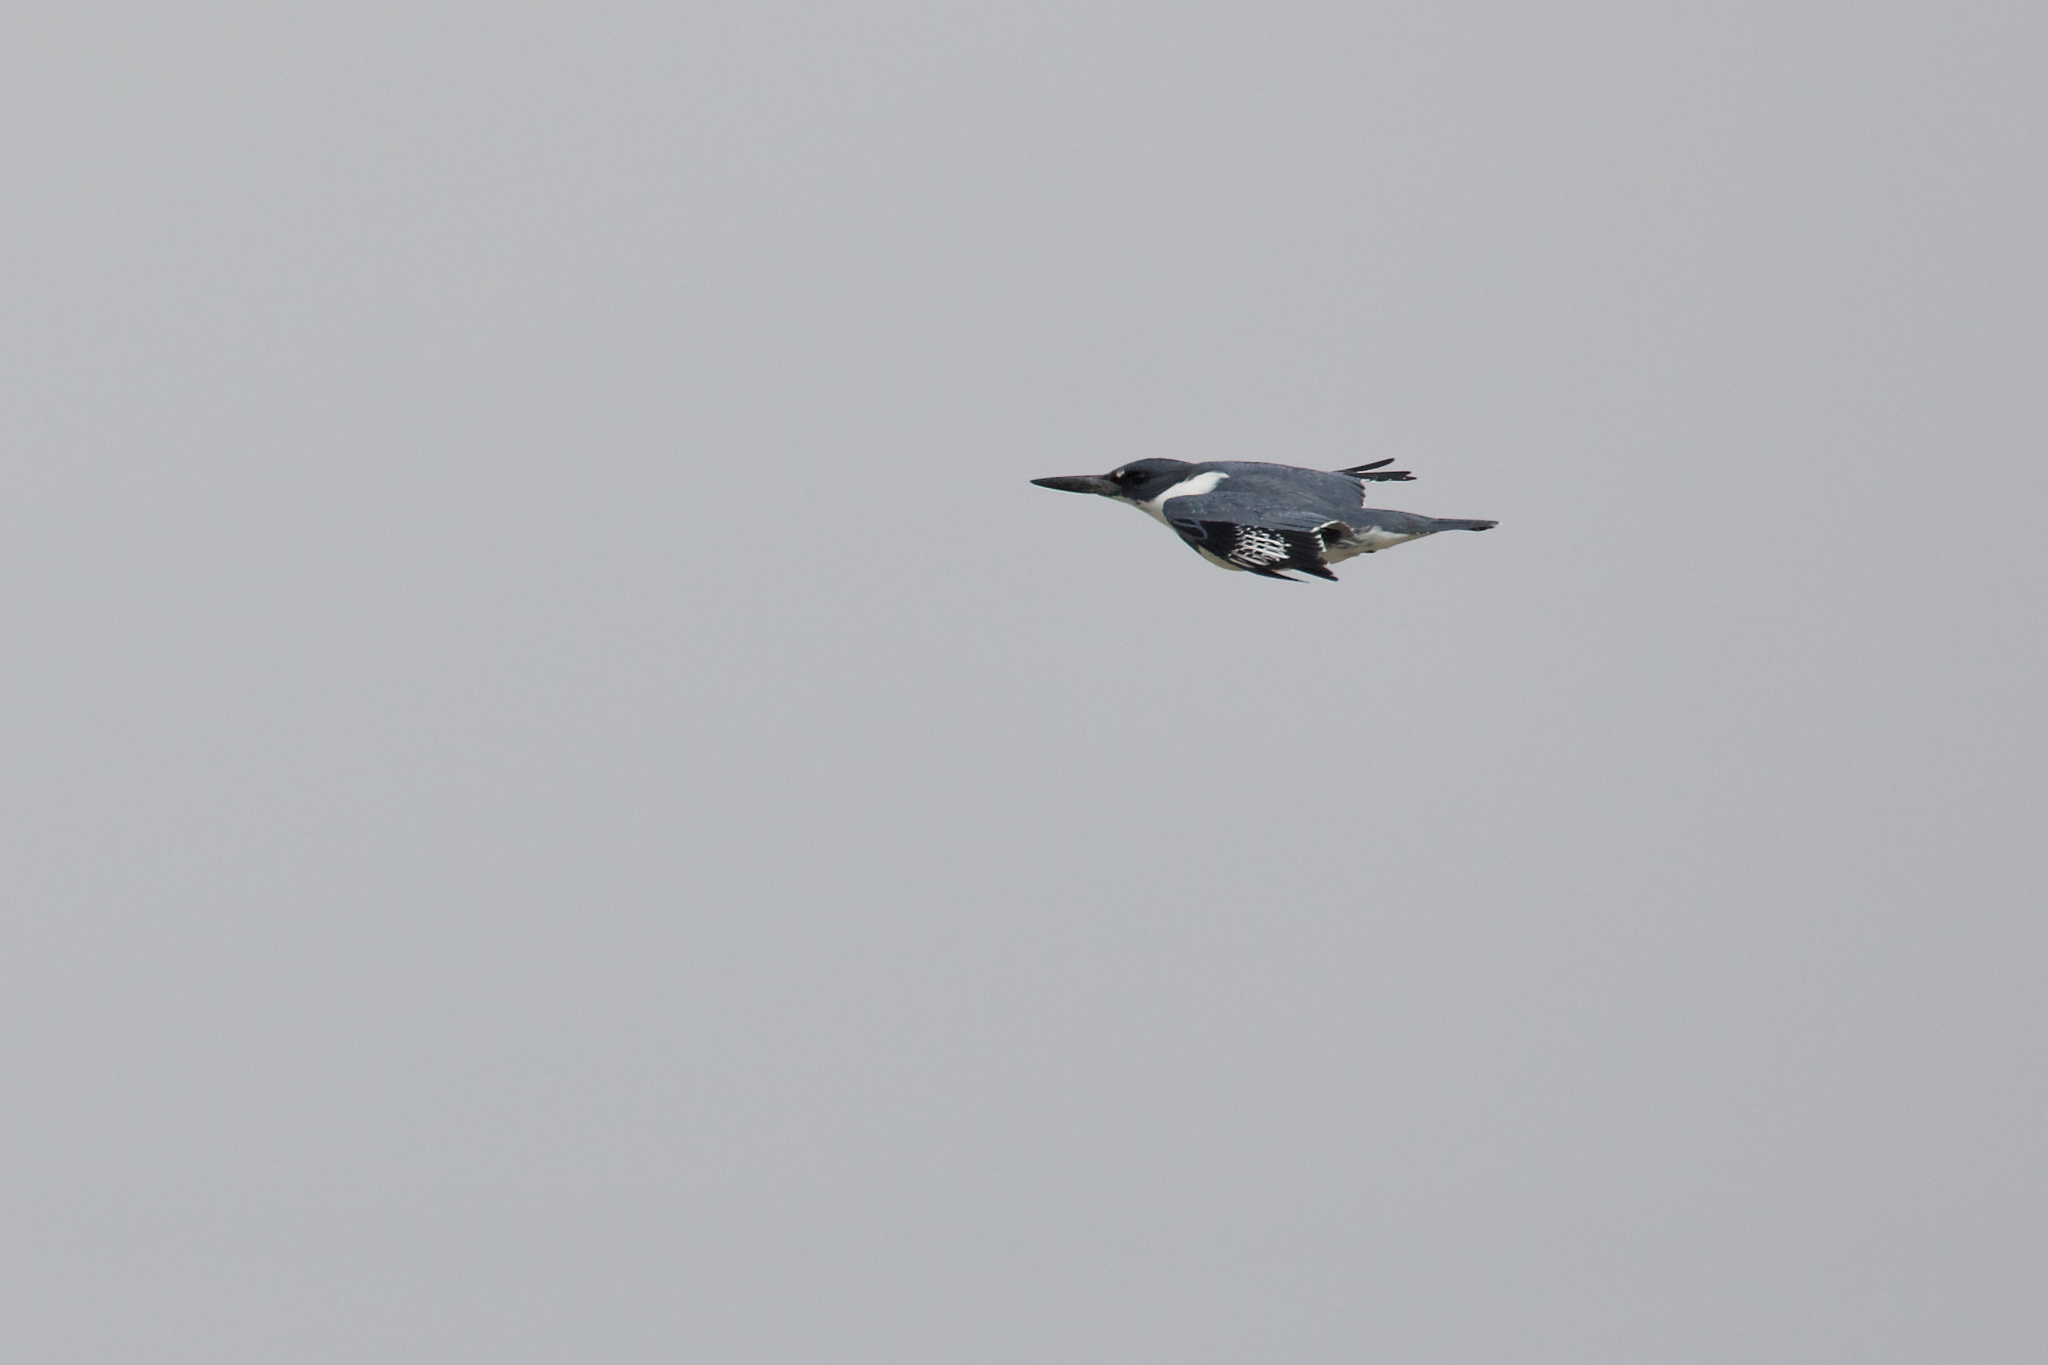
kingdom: Animalia
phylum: Chordata
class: Aves
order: Coraciiformes
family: Alcedinidae
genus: Megaceryle
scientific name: Megaceryle alcyon
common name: Belted kingfisher
